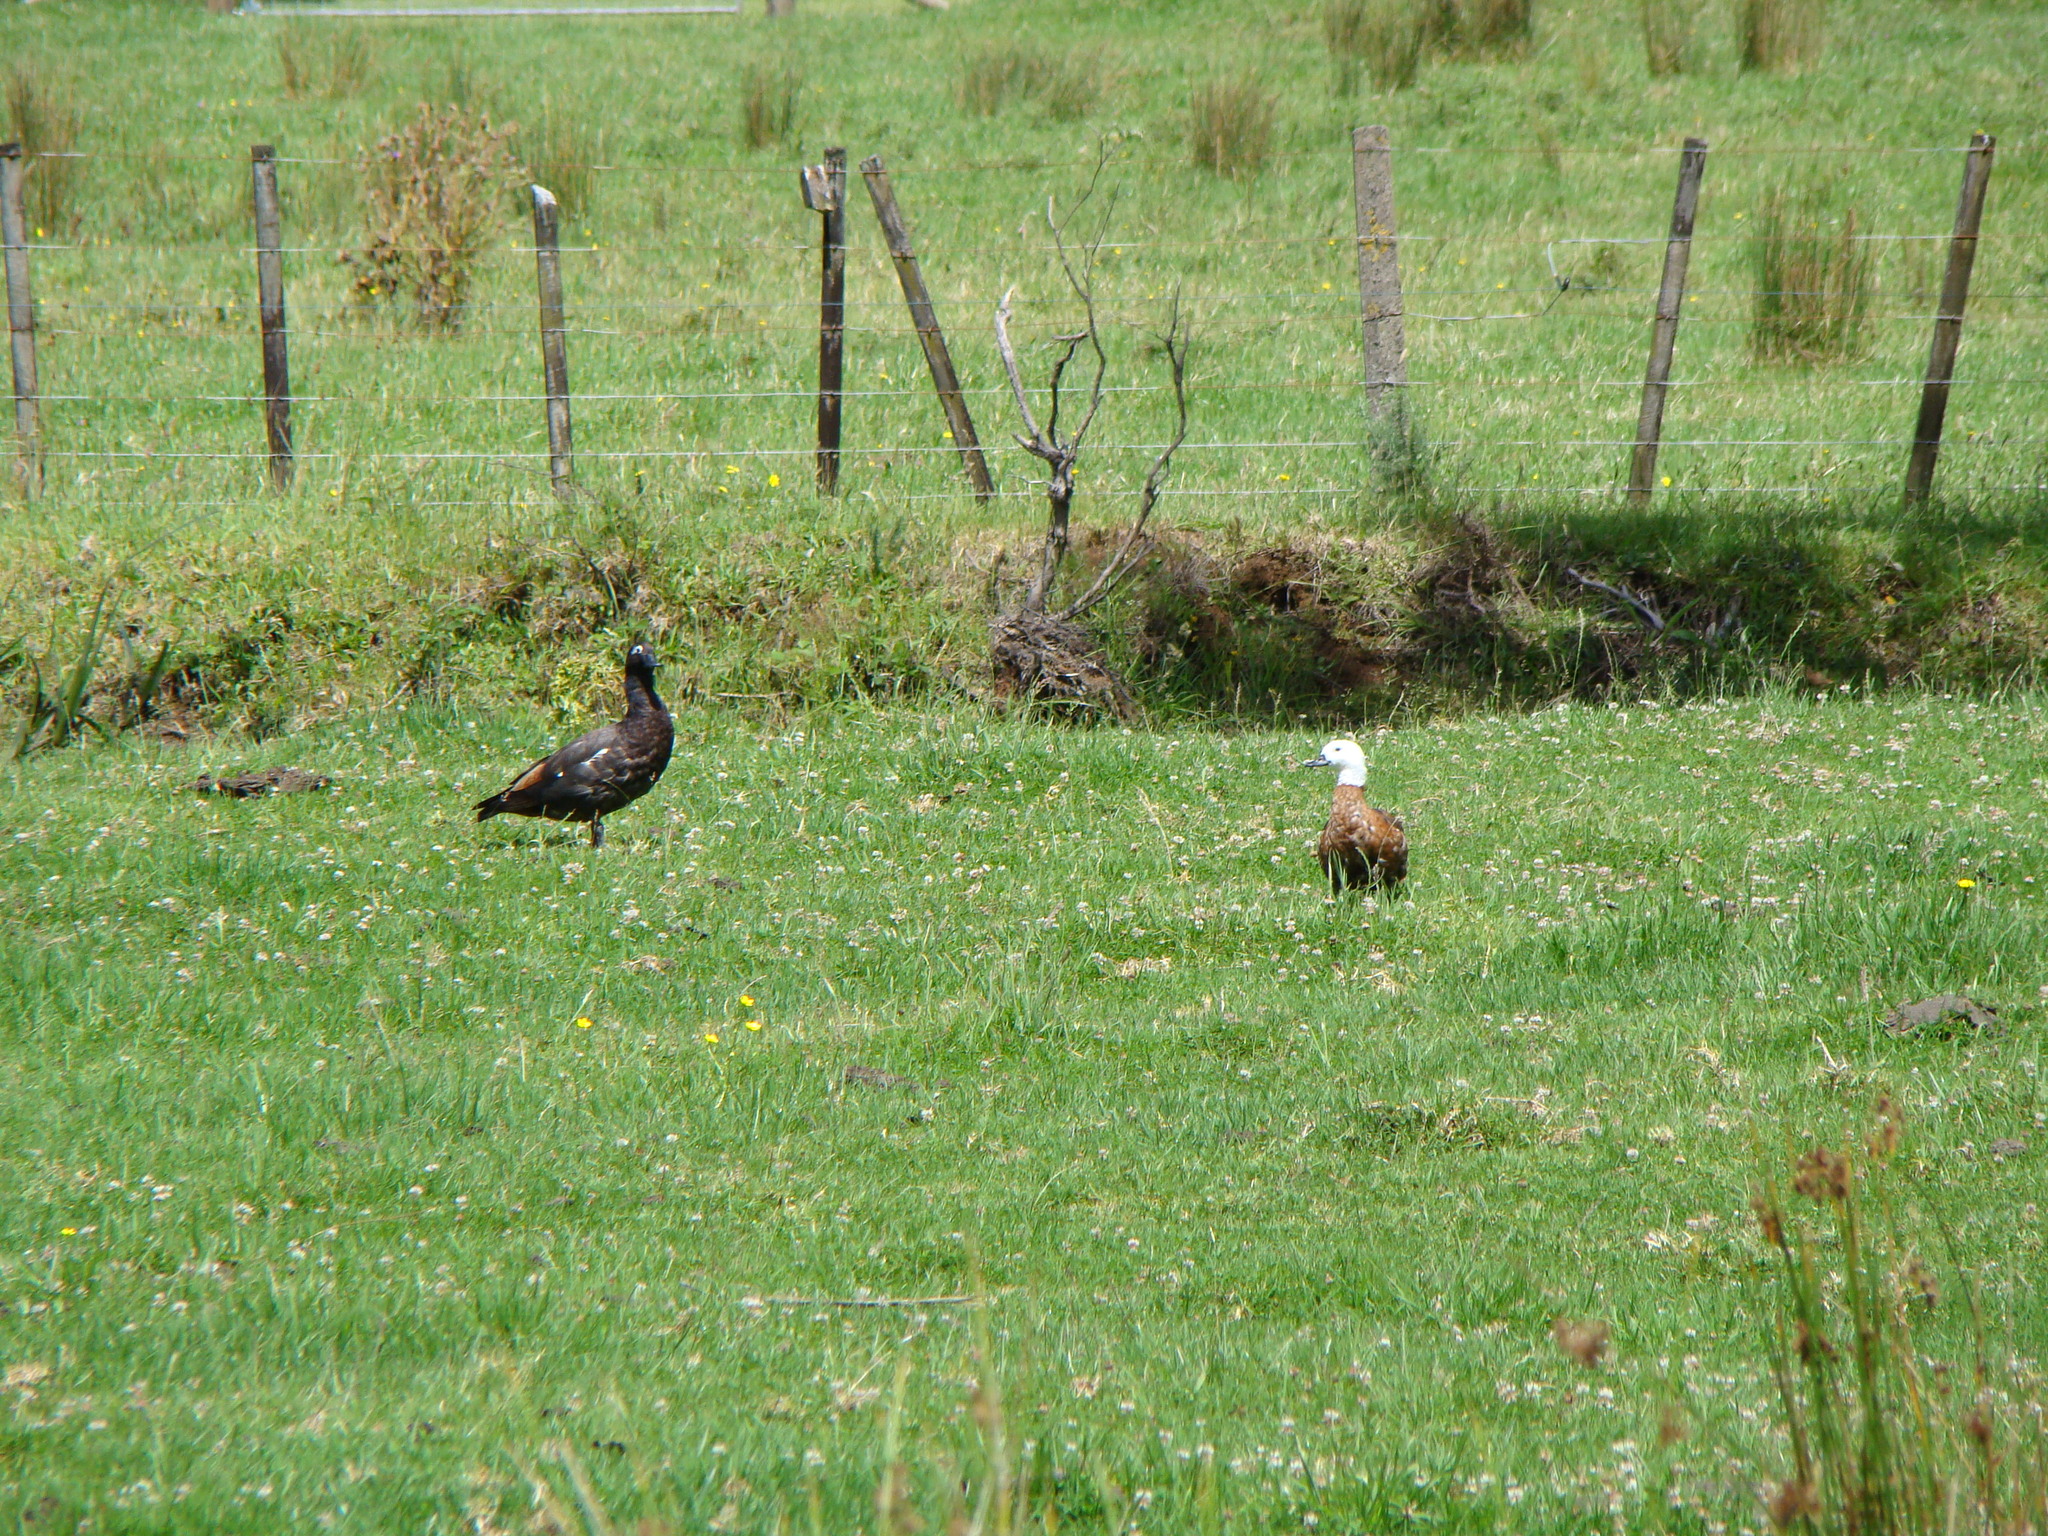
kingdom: Animalia
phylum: Chordata
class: Aves
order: Anseriformes
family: Anatidae
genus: Tadorna
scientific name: Tadorna variegata
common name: Paradise shelduck
